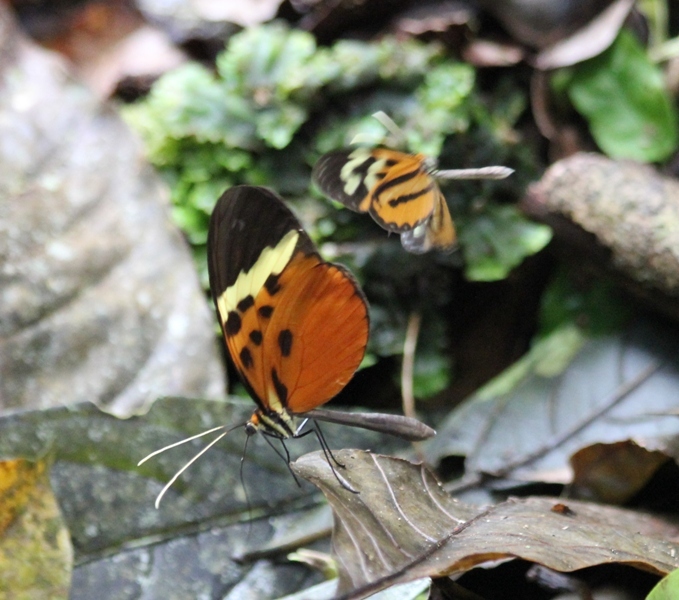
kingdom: Animalia
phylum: Arthropoda
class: Insecta
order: Lepidoptera
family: Nymphalidae
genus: Melinaea
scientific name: Melinaea menophilus
